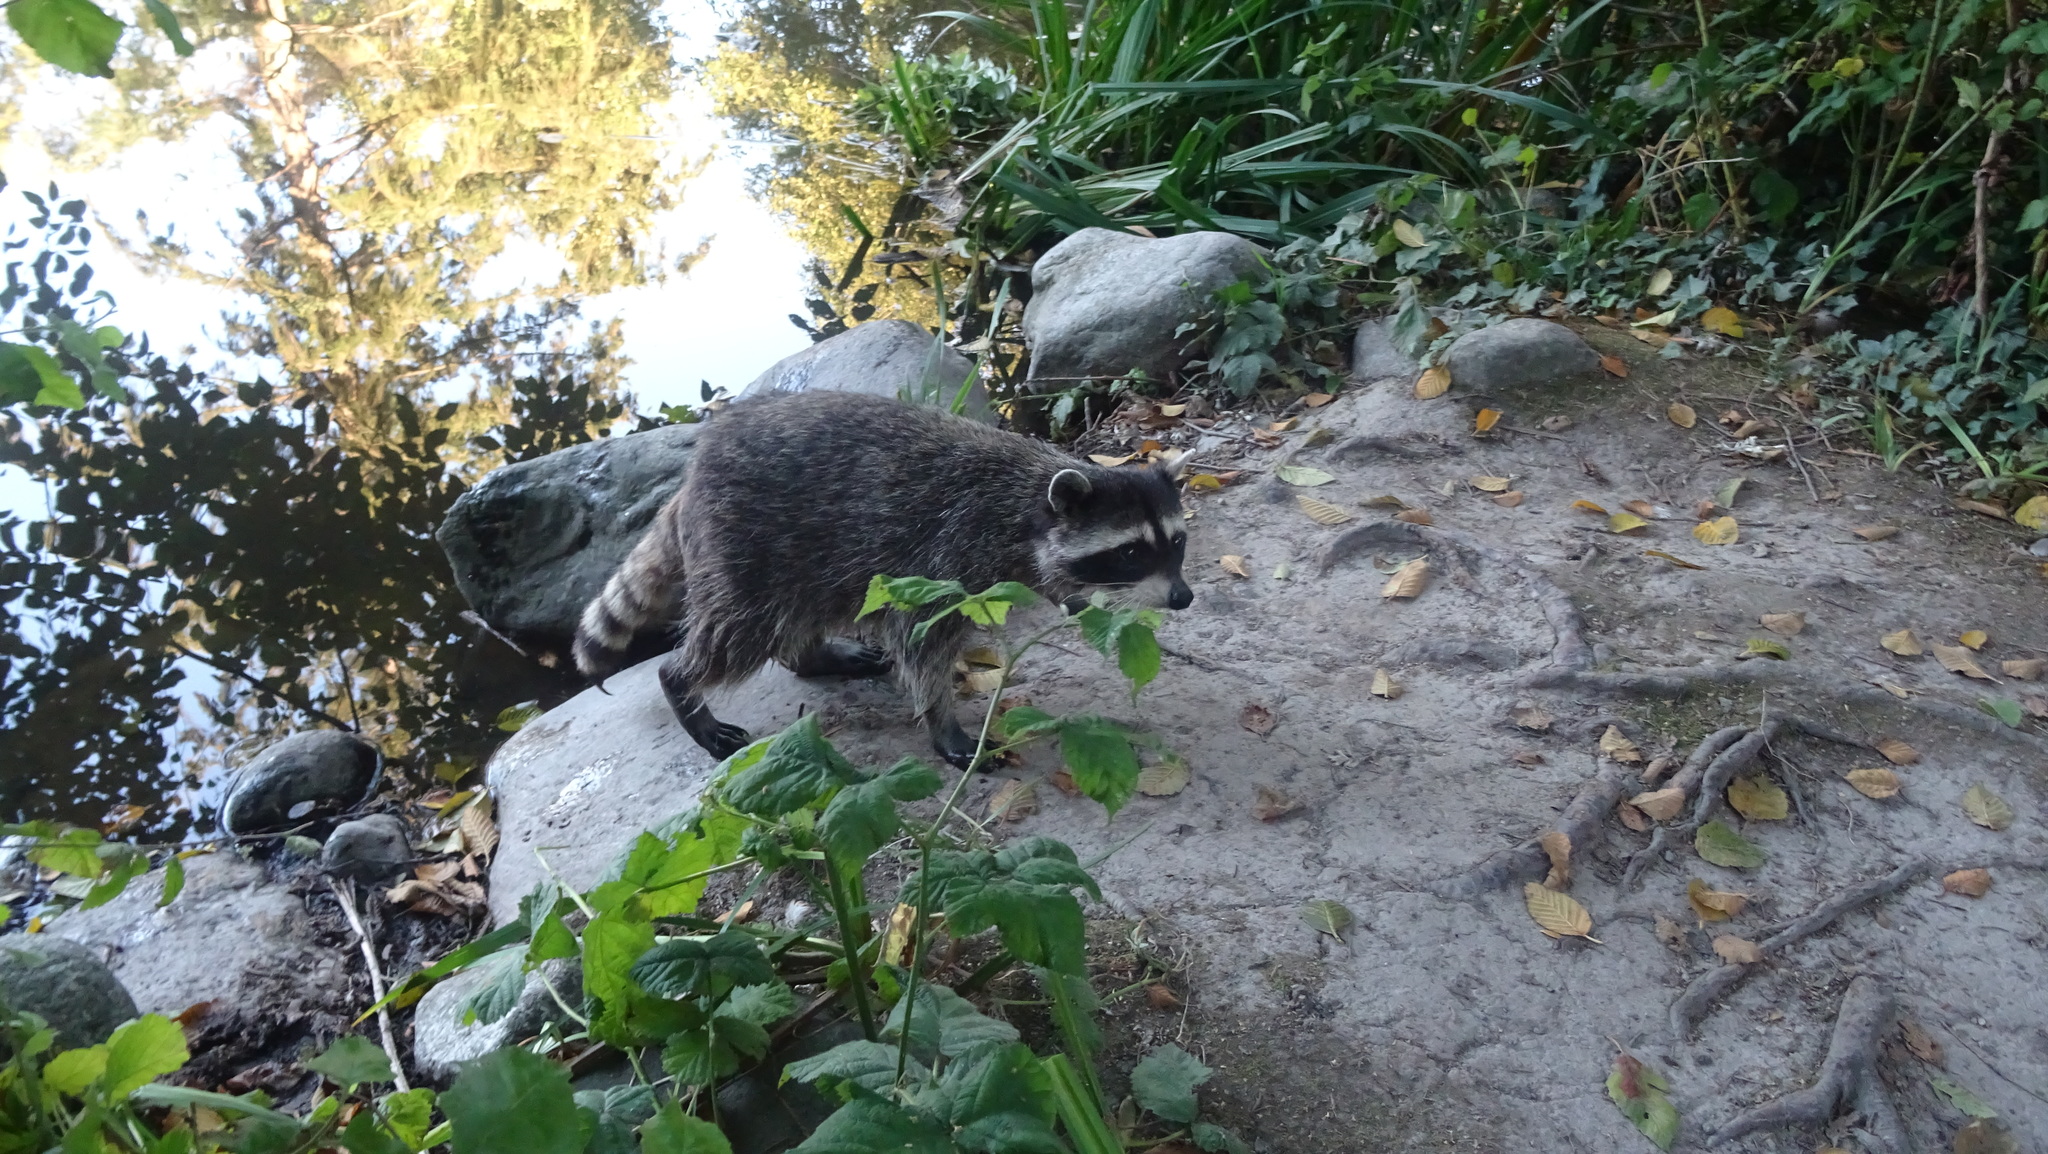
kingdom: Animalia
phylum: Chordata
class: Mammalia
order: Carnivora
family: Procyonidae
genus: Procyon
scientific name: Procyon lotor
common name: Raccoon
